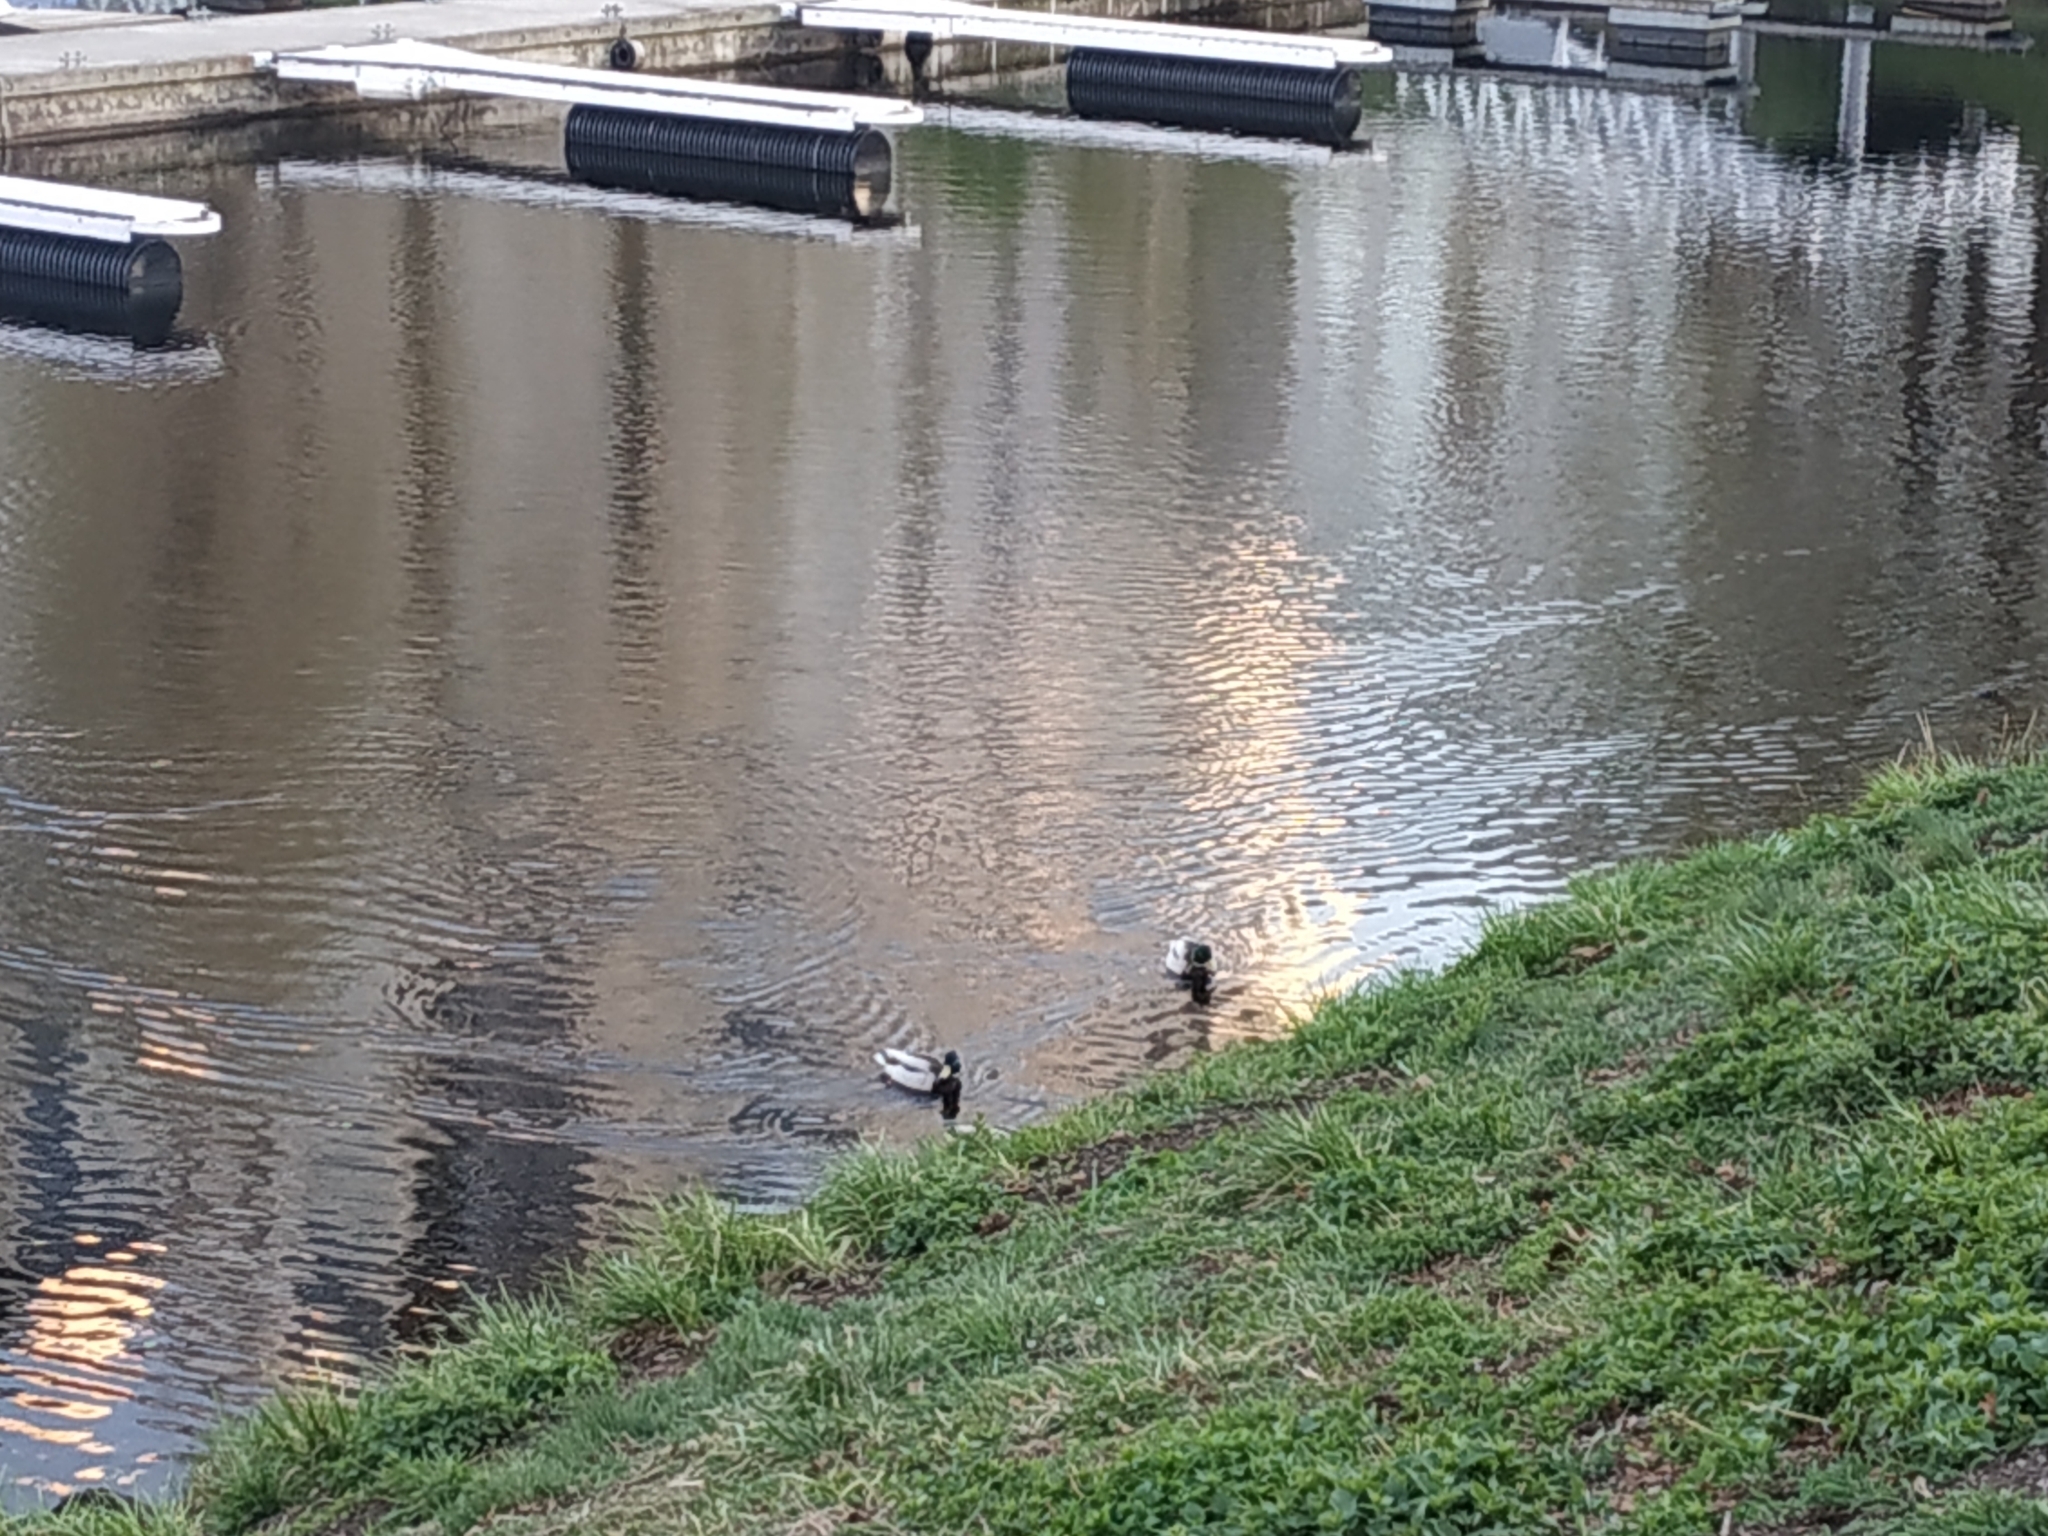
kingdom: Animalia
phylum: Chordata
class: Aves
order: Anseriformes
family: Anatidae
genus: Anas
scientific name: Anas platyrhynchos
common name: Mallard
